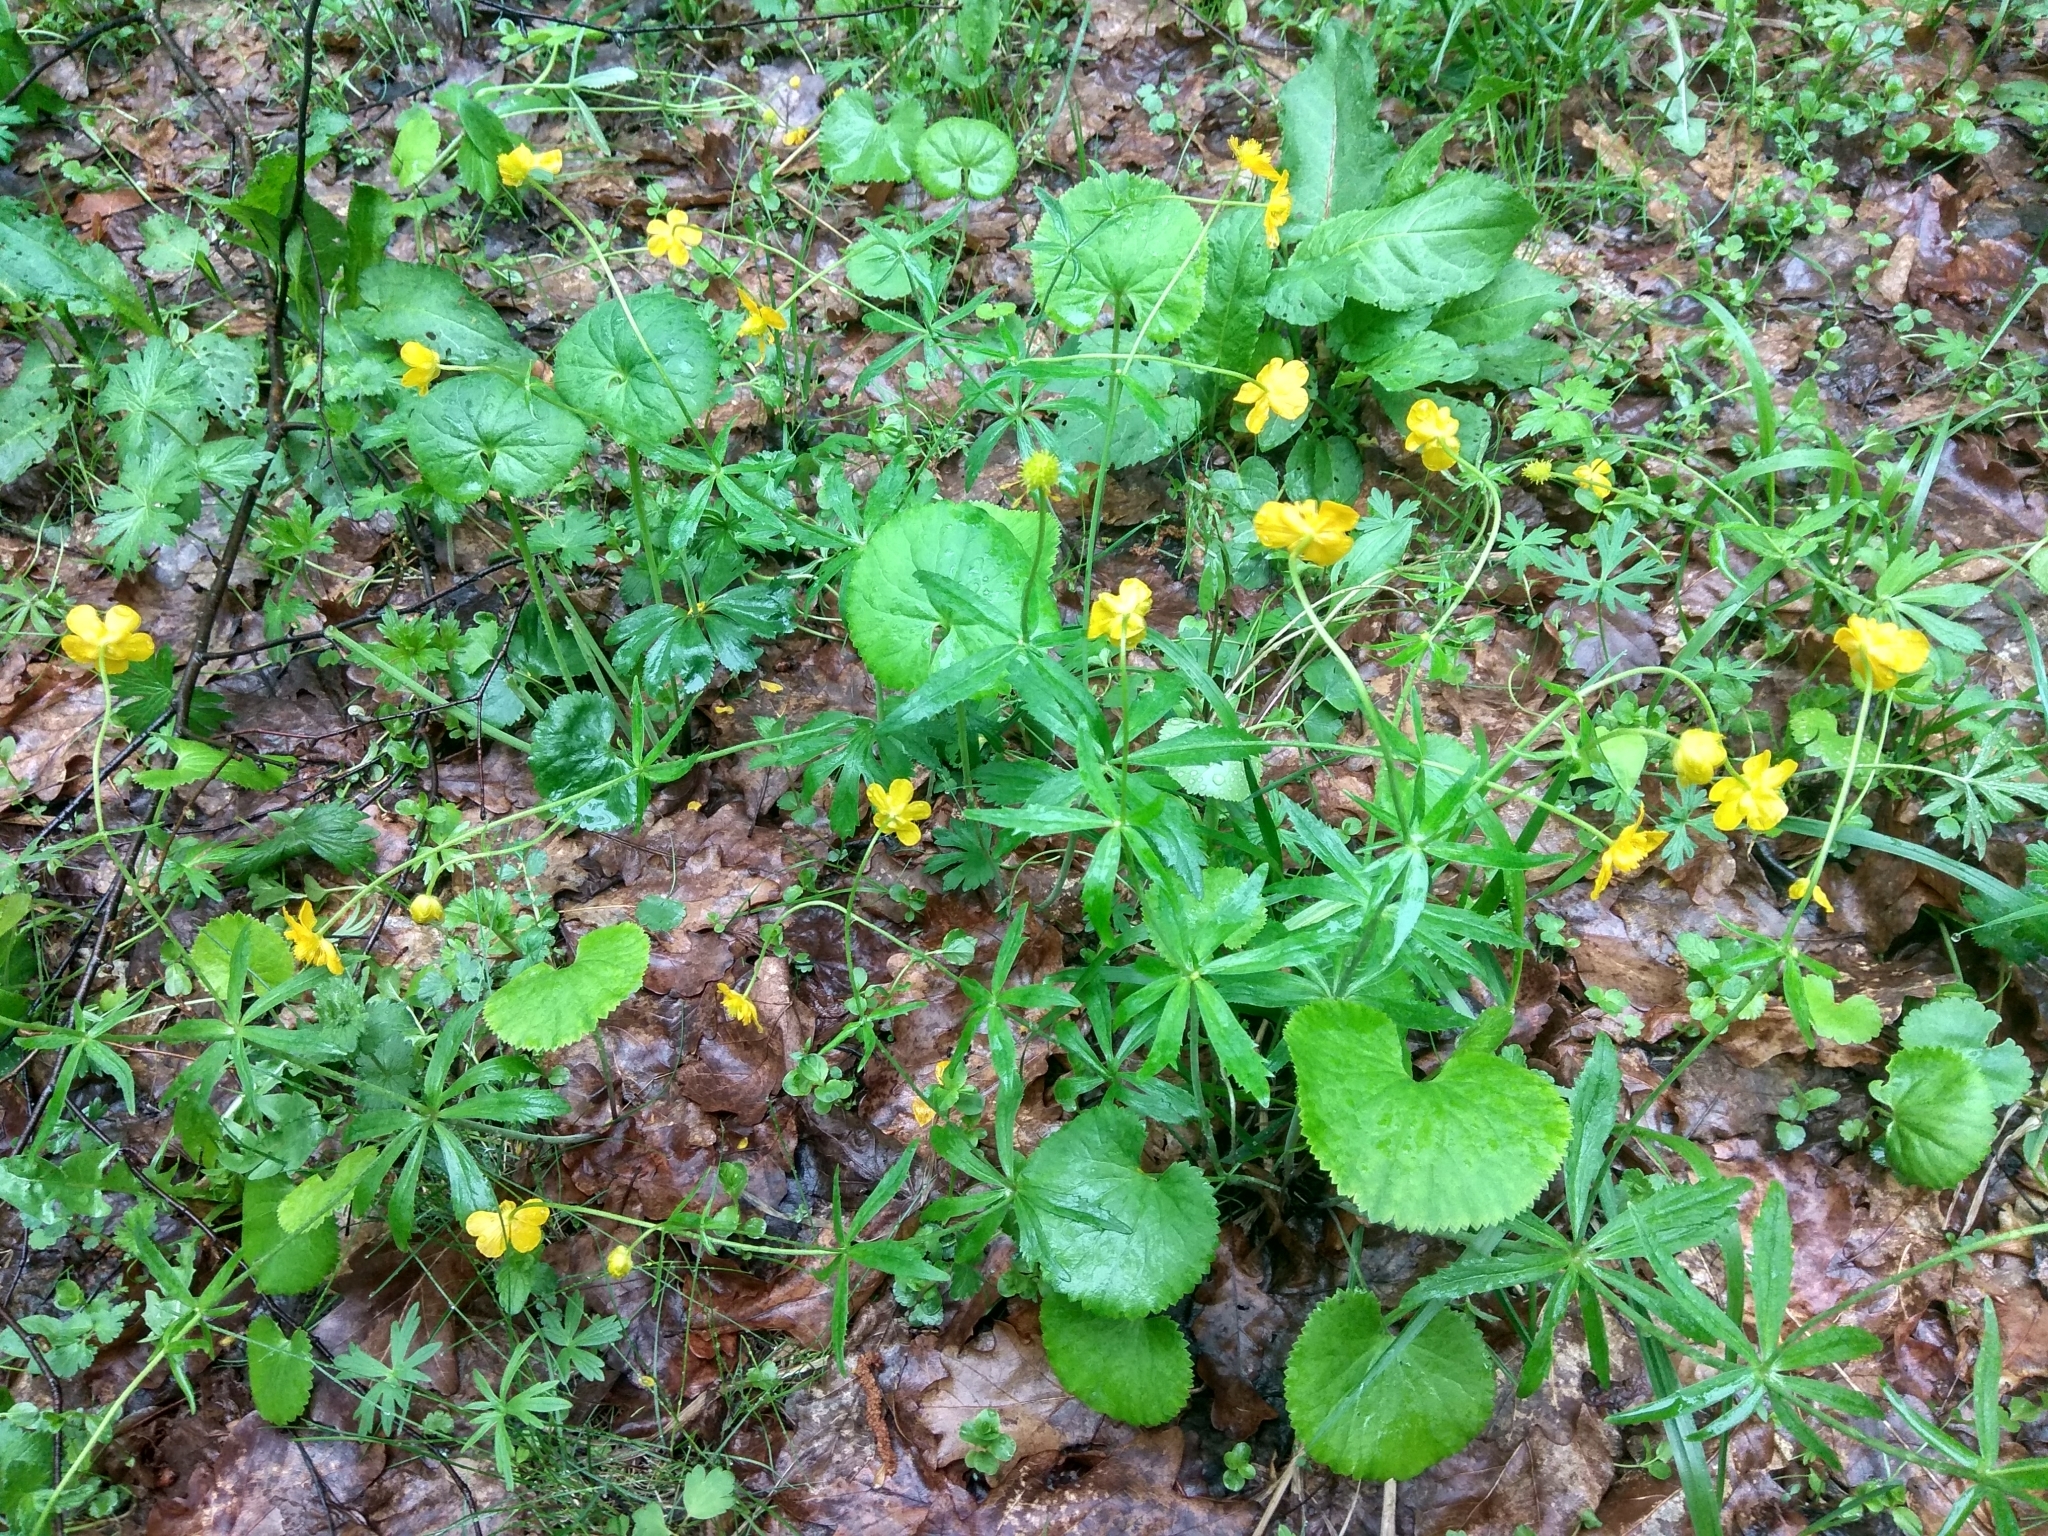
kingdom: Plantae
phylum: Tracheophyta
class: Magnoliopsida
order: Ranunculales
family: Ranunculaceae
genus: Ranunculus
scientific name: Ranunculus cassubicus
